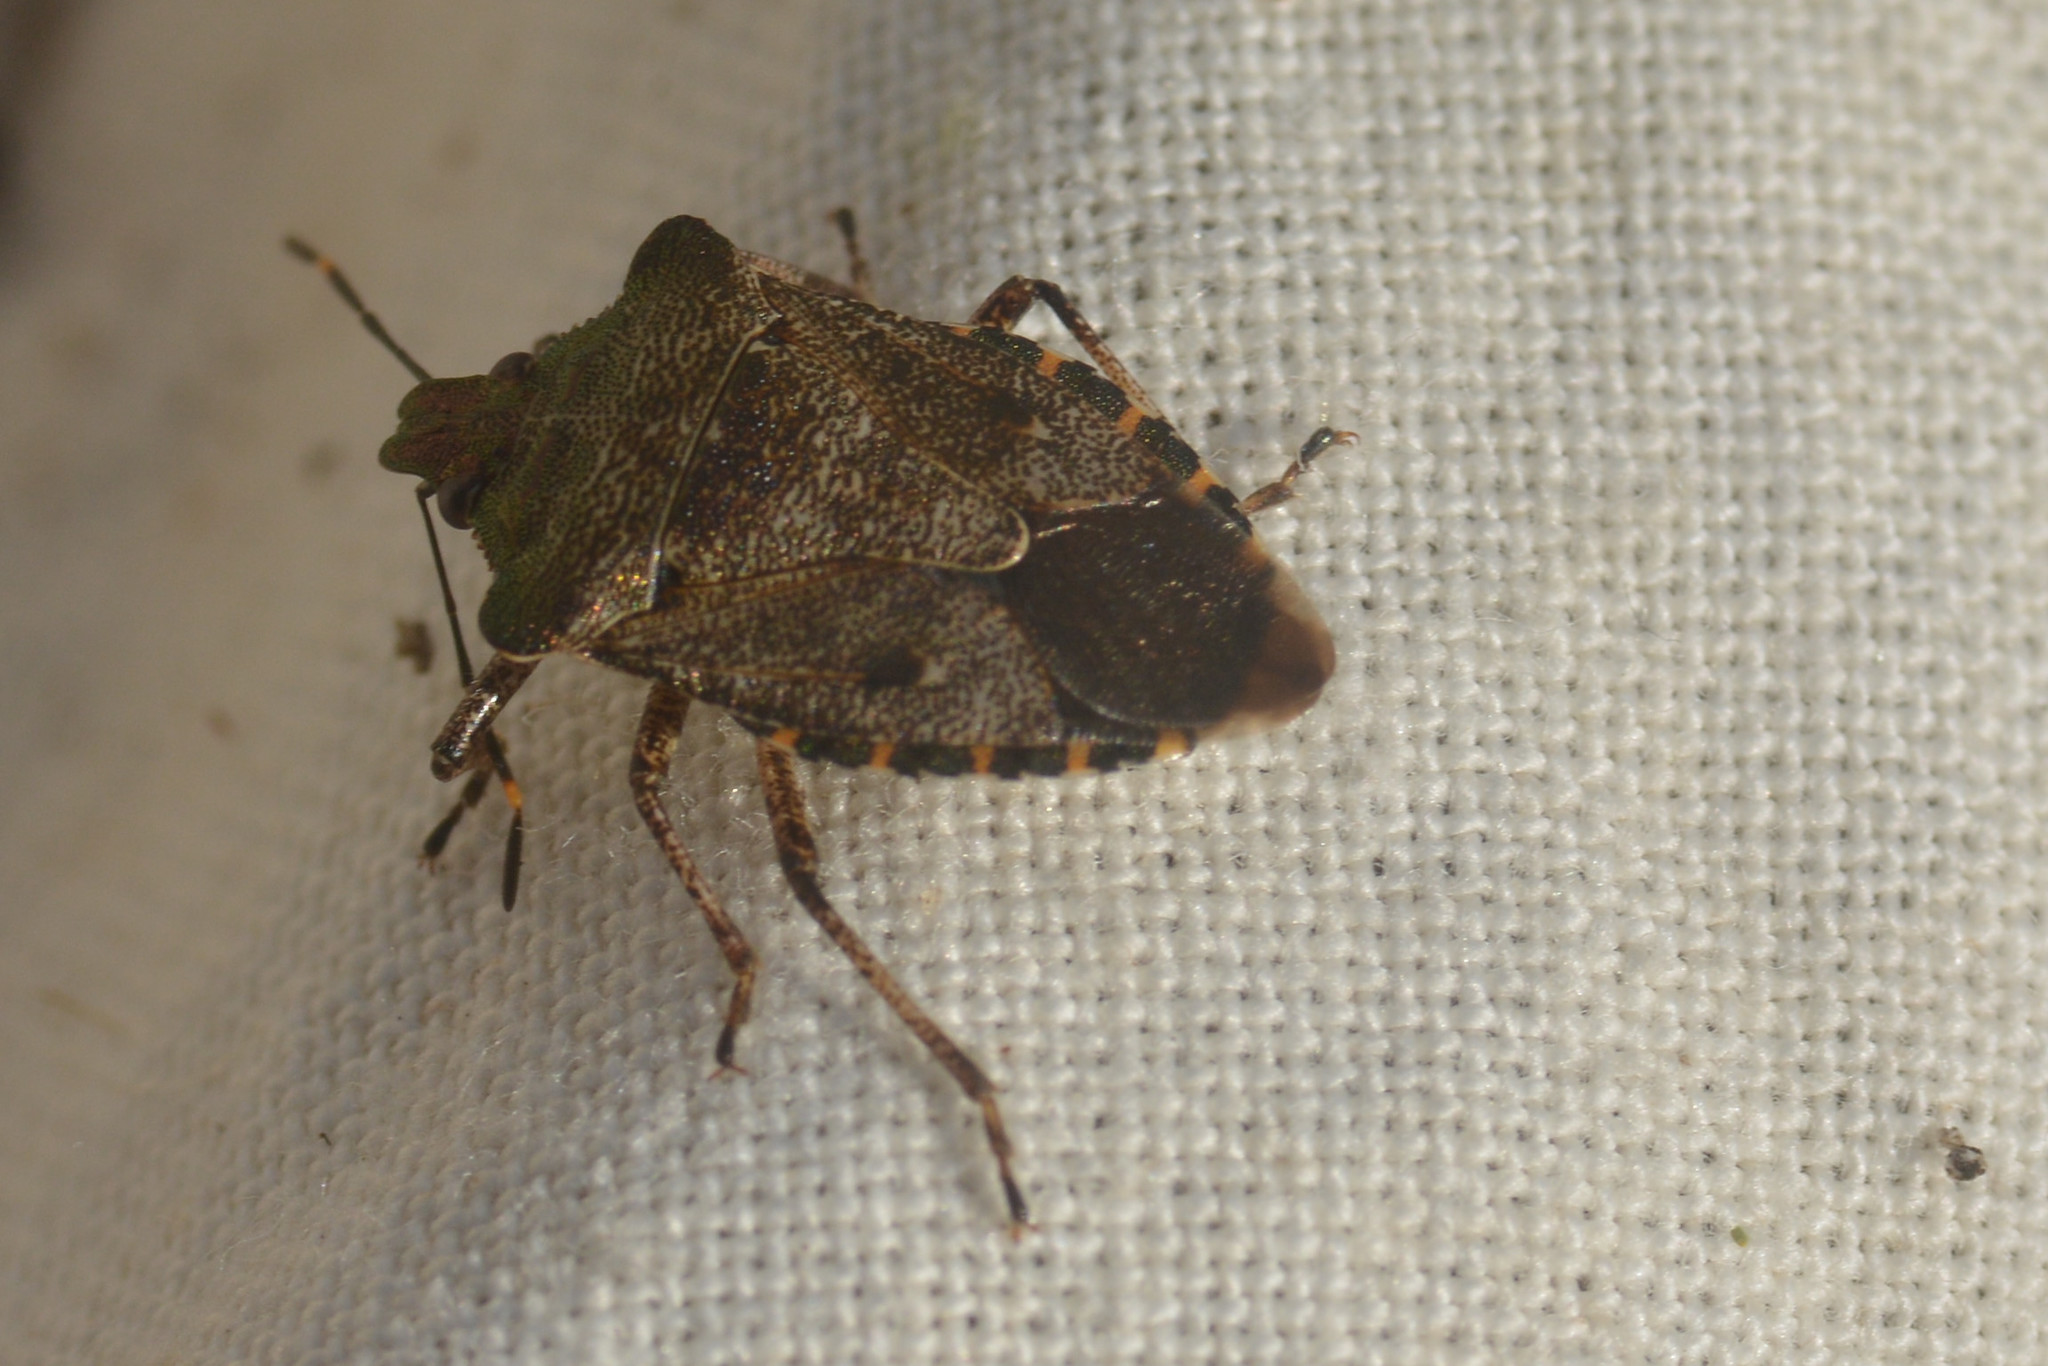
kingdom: Animalia
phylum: Arthropoda
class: Insecta
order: Hemiptera
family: Pentatomidae
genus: Troilus
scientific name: Troilus luridus
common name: Bronze shieldbug
